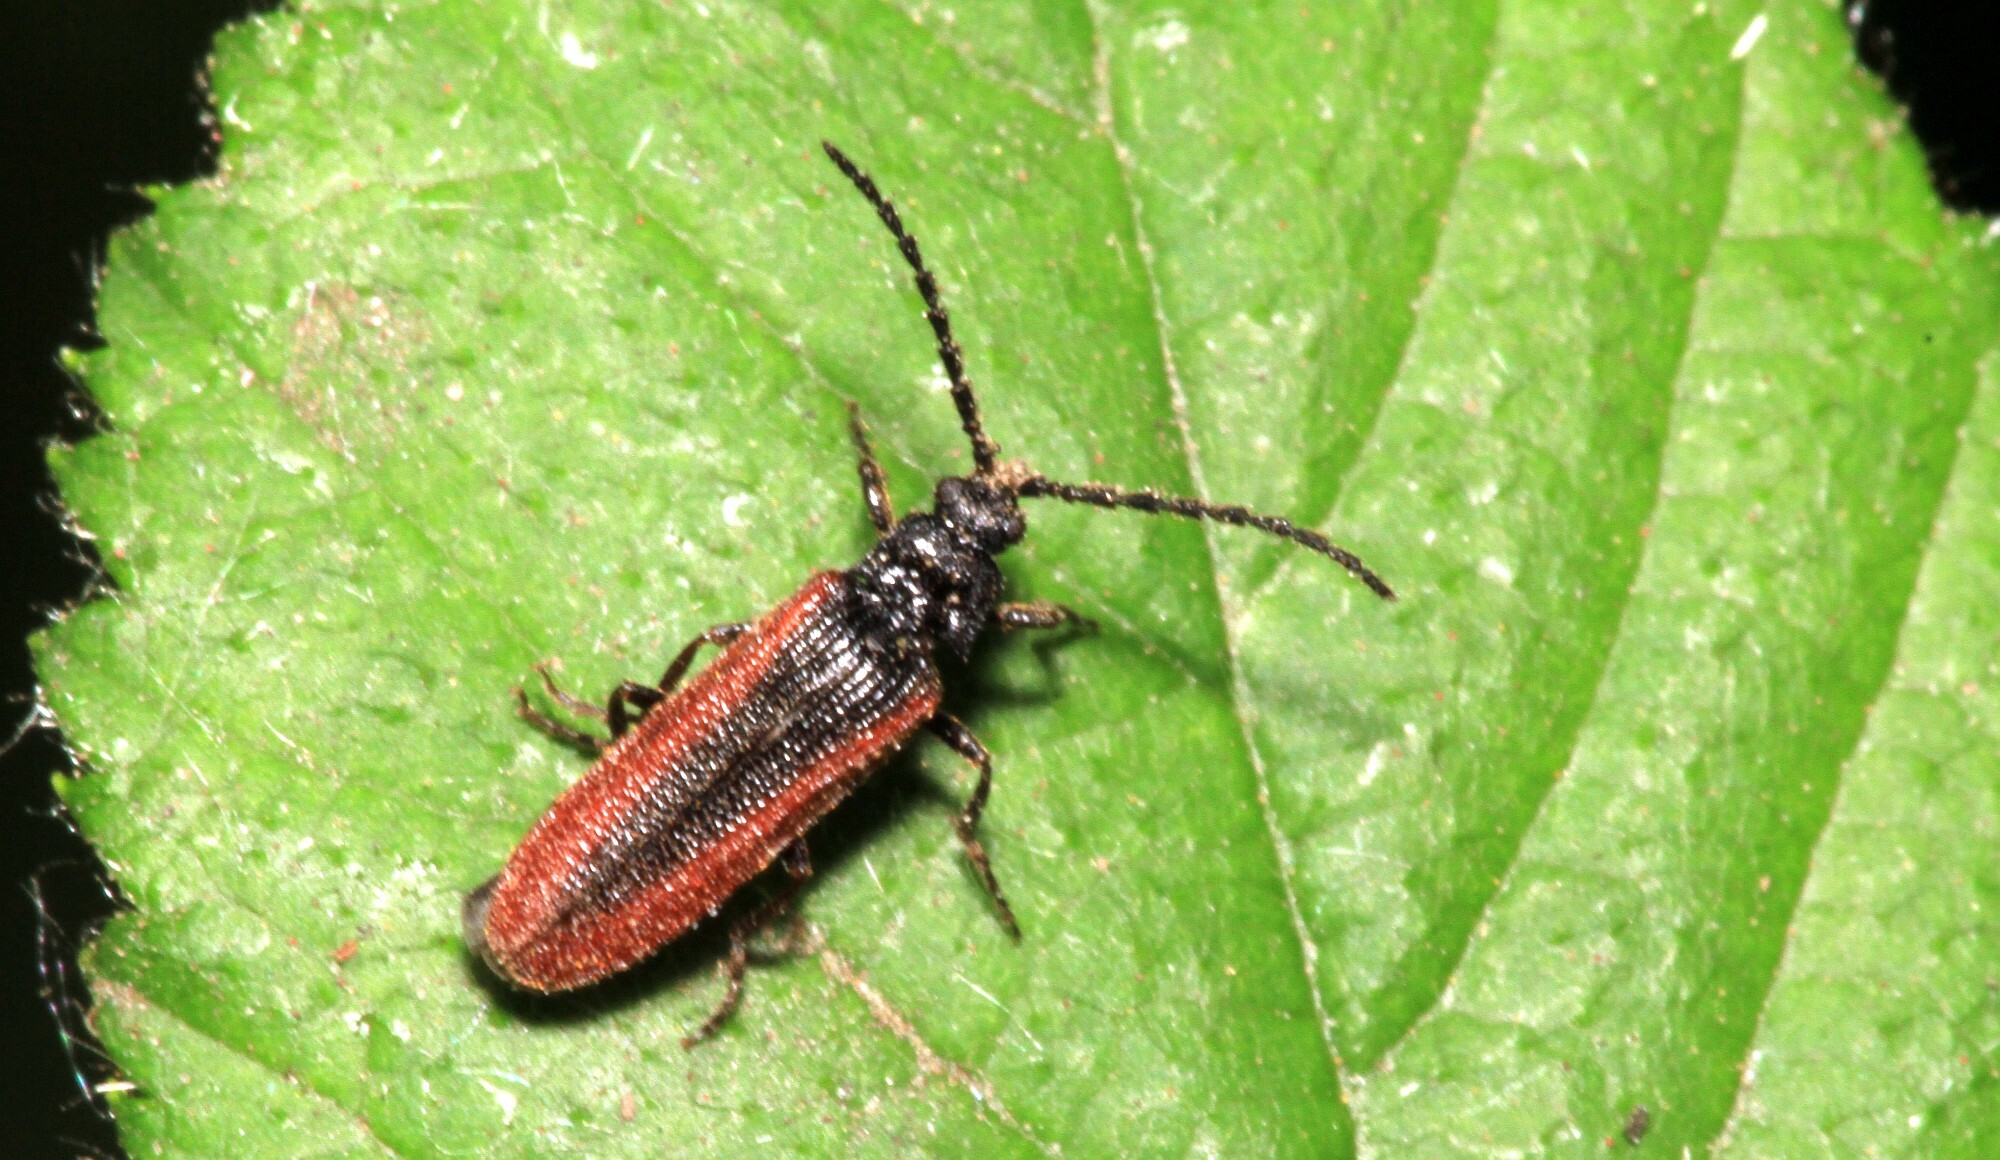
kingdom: Animalia
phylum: Arthropoda
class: Insecta
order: Coleoptera
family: Omalisidae
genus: Omalisus
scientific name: Omalisus fontisbellaquei
